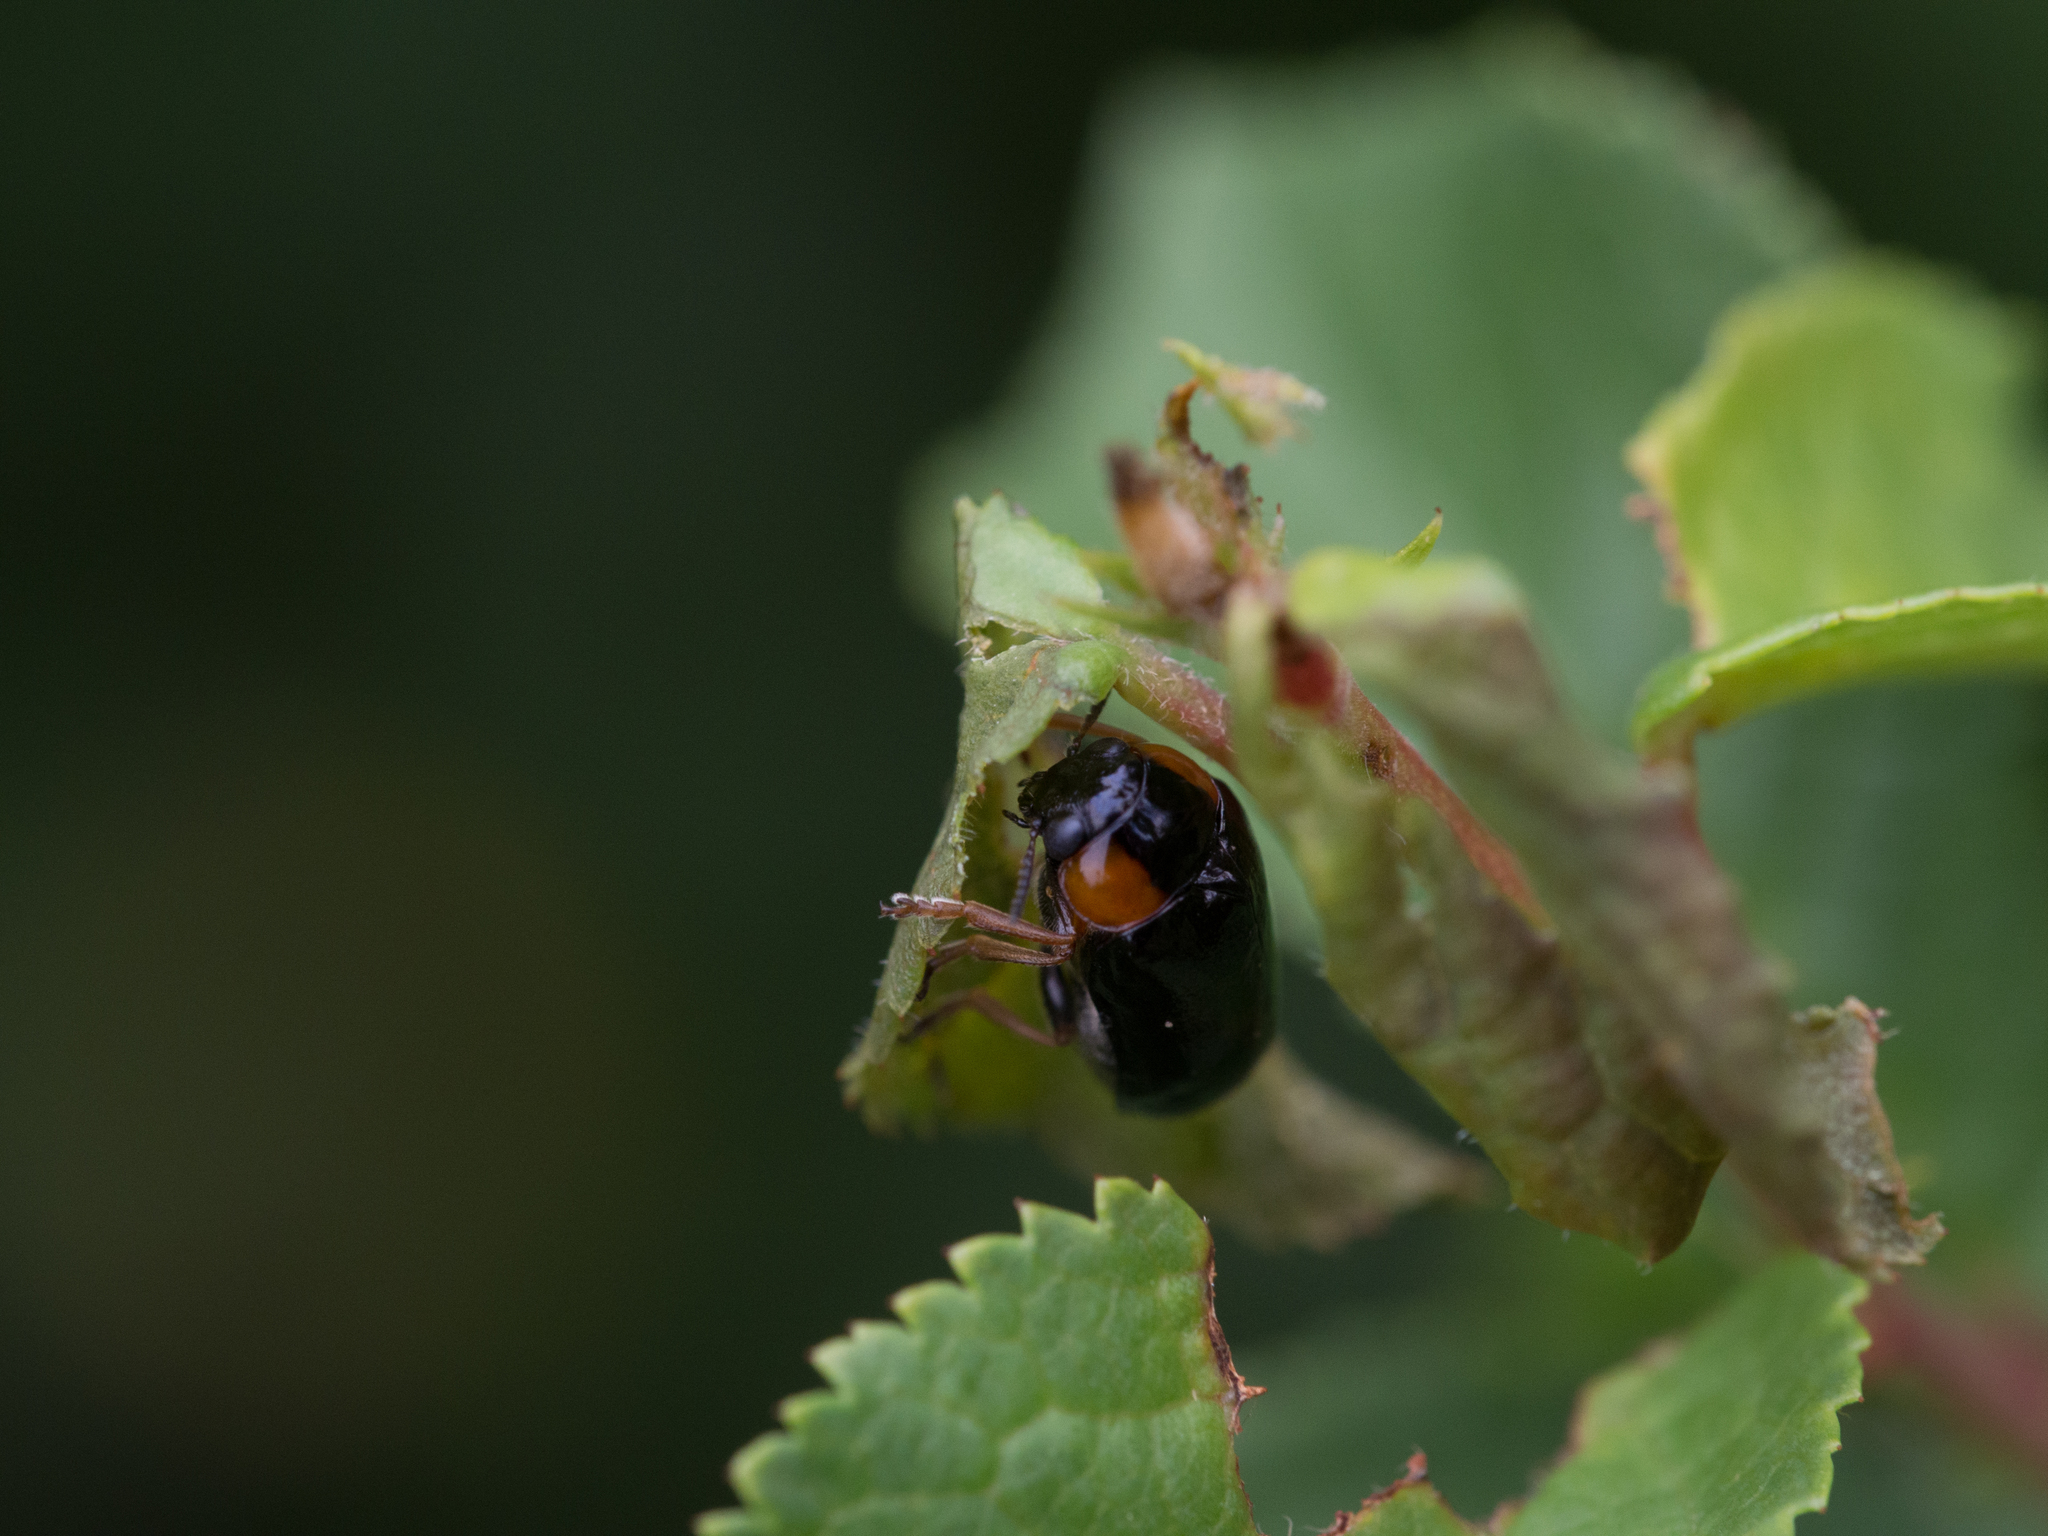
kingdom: Animalia
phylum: Arthropoda
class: Insecta
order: Coleoptera
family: Chrysomelidae
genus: Smaragdina
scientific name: Smaragdina aurita
